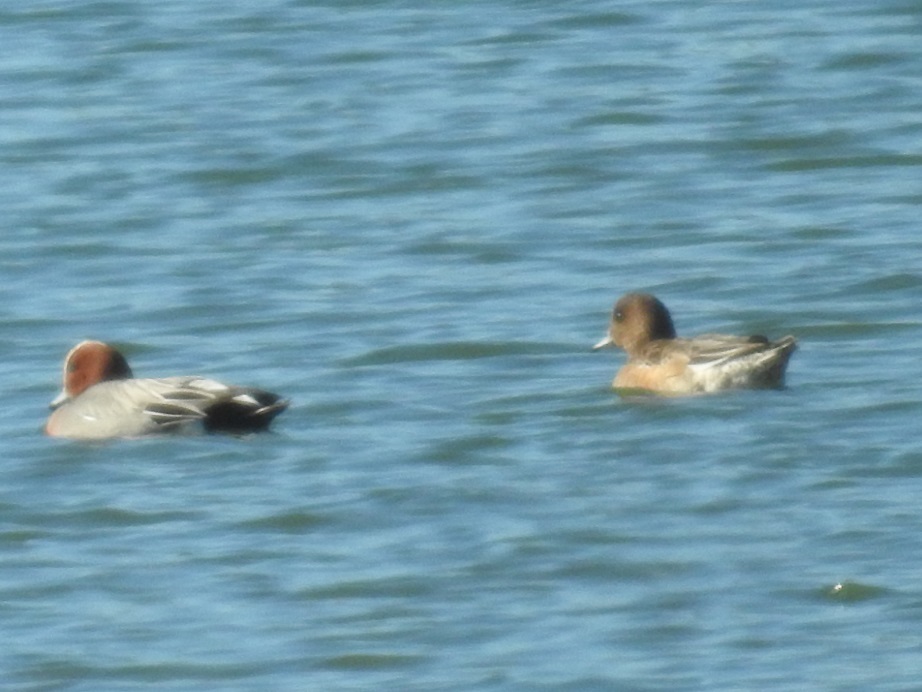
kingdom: Animalia
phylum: Chordata
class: Aves
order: Anseriformes
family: Anatidae
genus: Mareca
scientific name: Mareca penelope
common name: Eurasian wigeon
